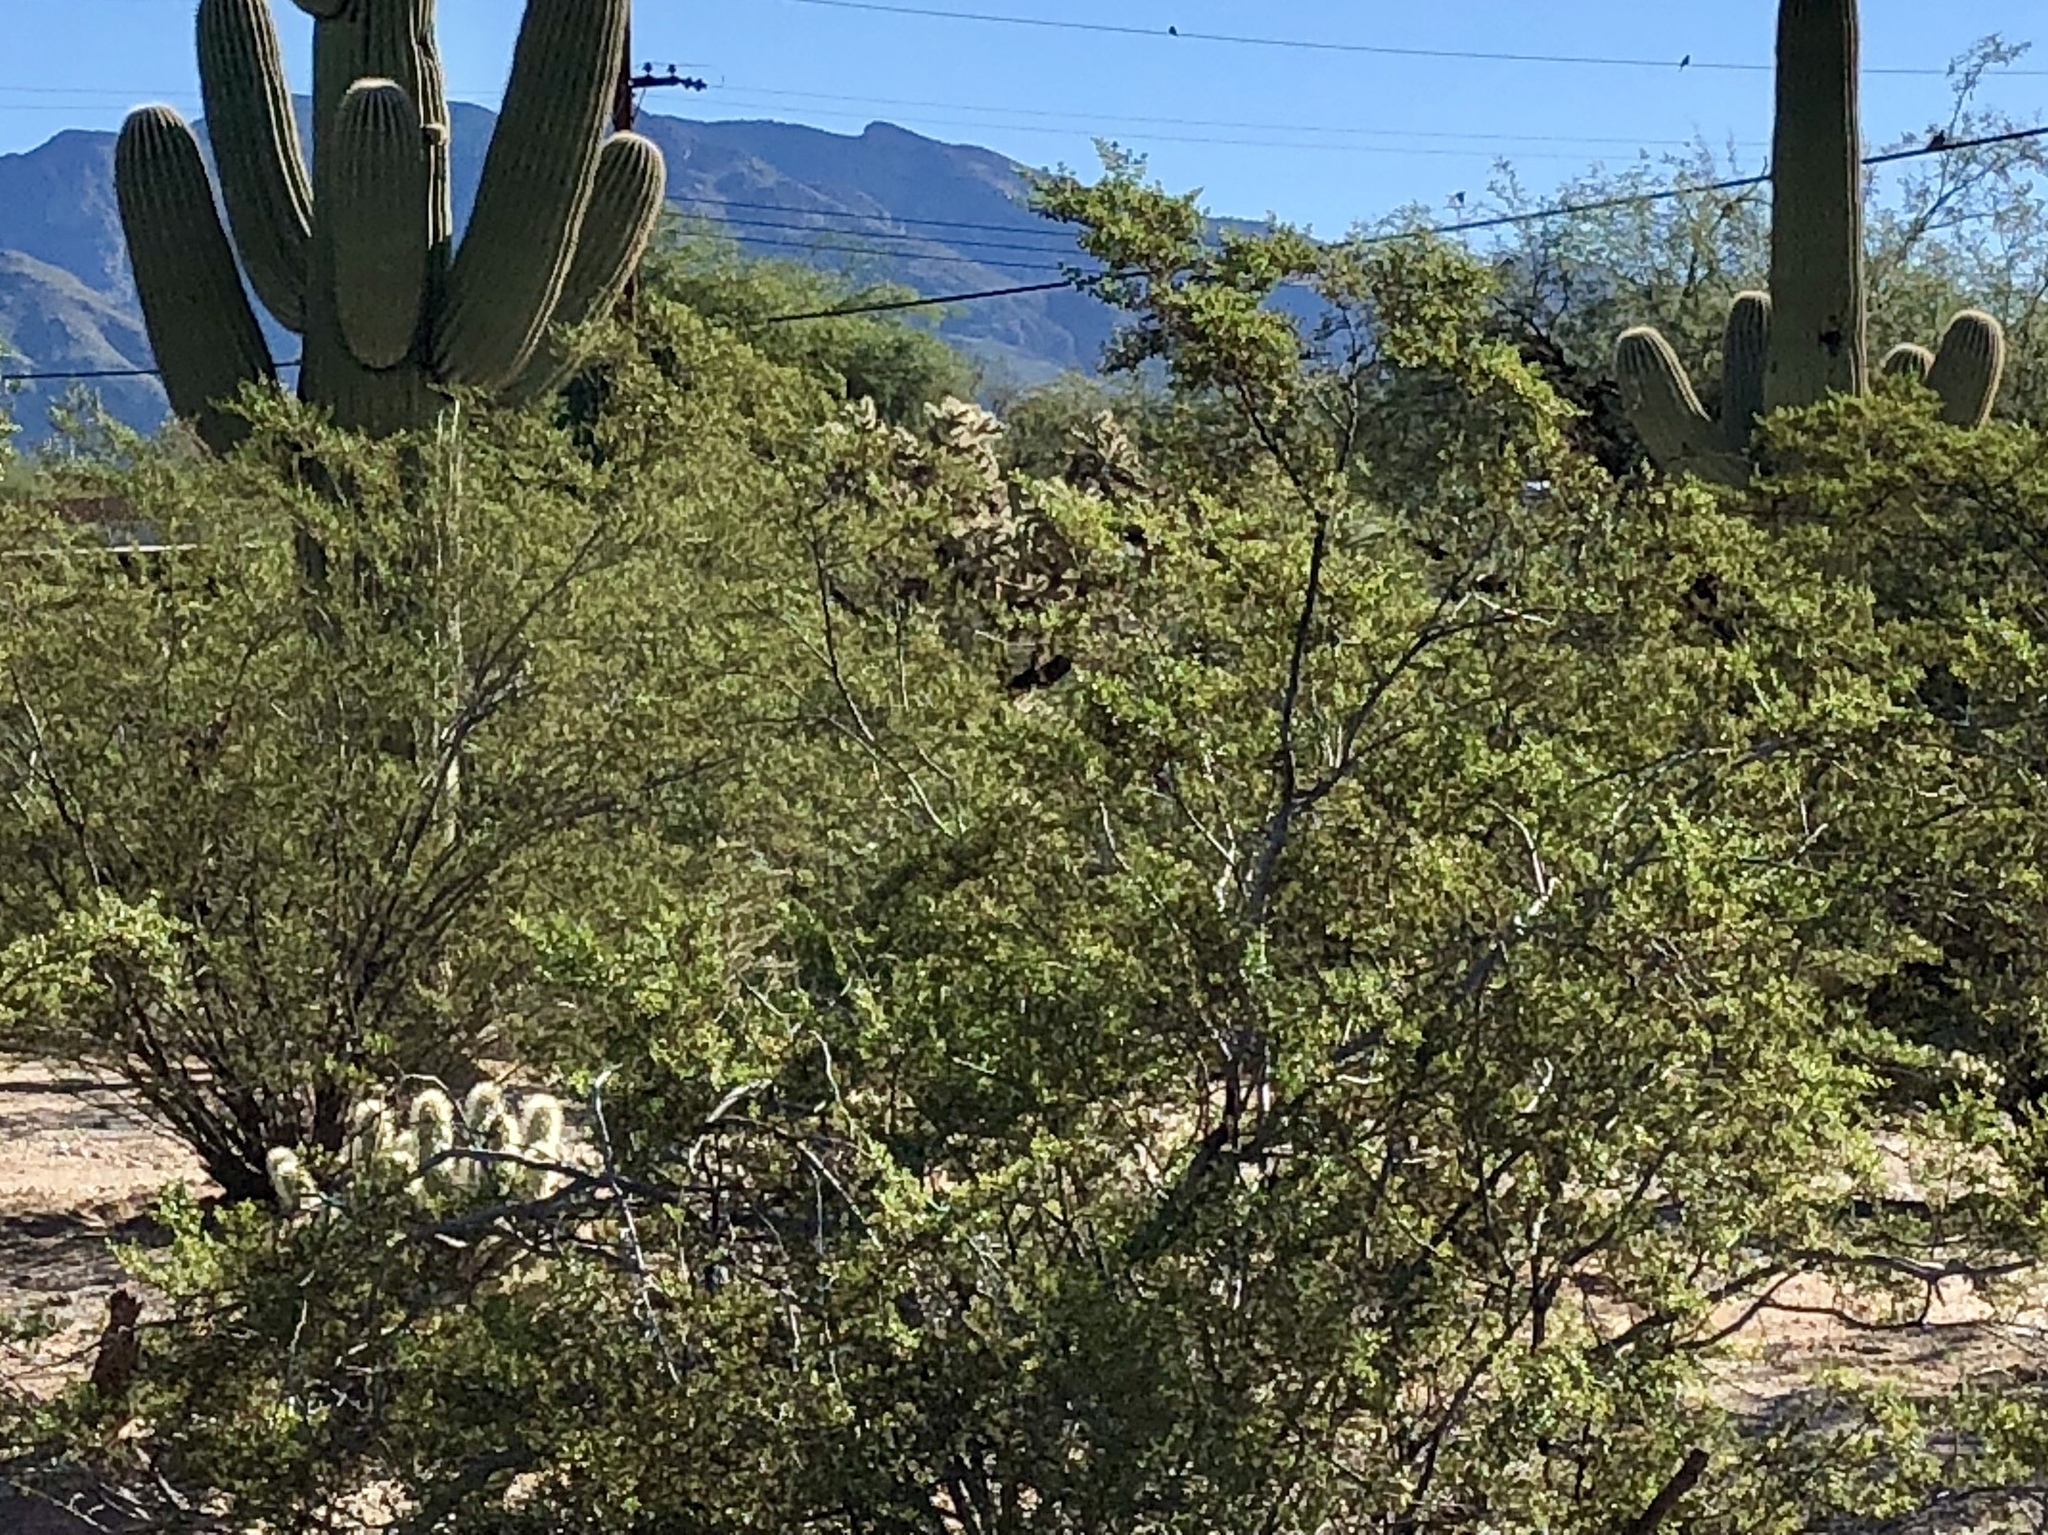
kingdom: Plantae
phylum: Tracheophyta
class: Magnoliopsida
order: Zygophyllales
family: Zygophyllaceae
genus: Larrea
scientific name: Larrea tridentata
